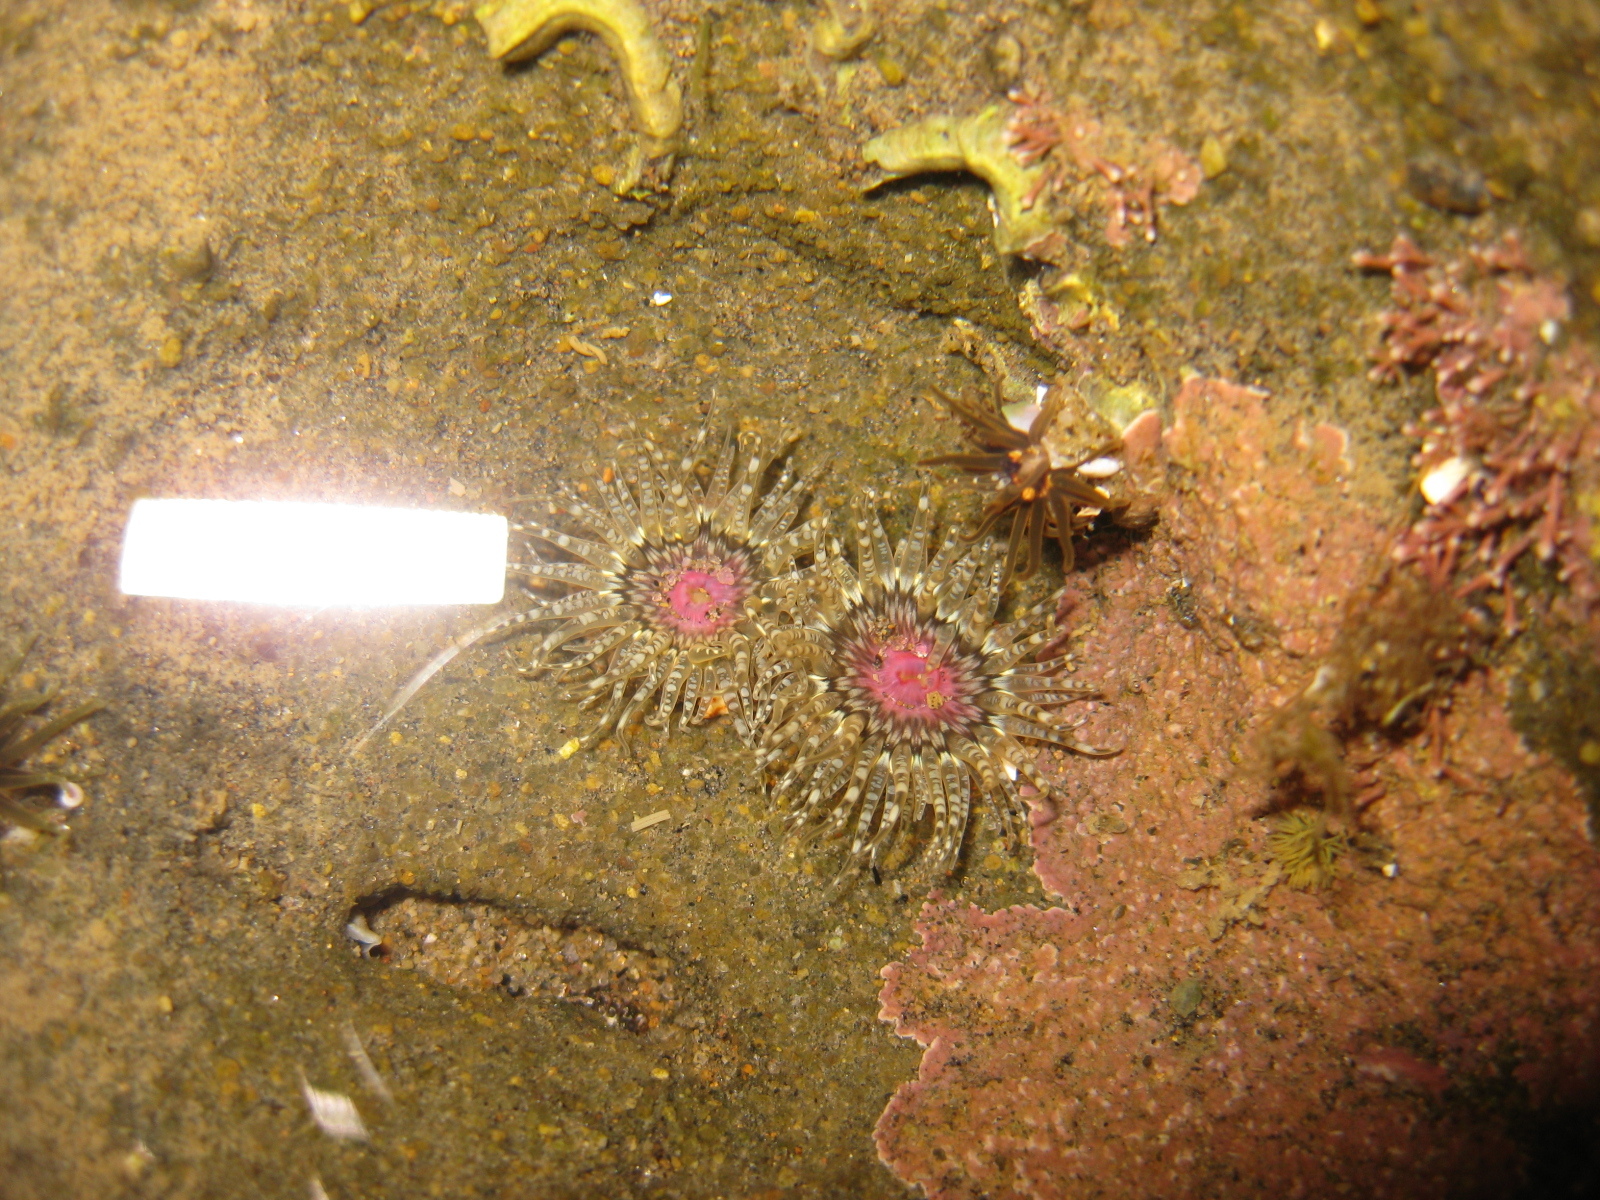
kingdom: Animalia
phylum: Cnidaria
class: Anthozoa
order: Actiniaria
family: Actiniidae
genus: Anthopleura
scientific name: Anthopleura minima
